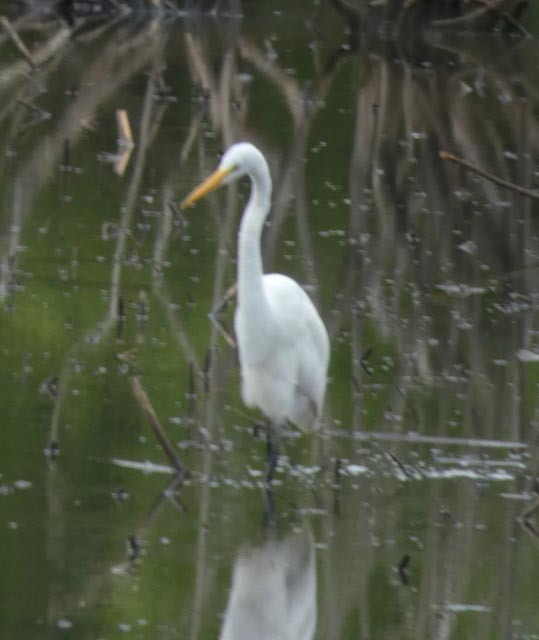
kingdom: Animalia
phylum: Chordata
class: Aves
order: Pelecaniformes
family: Ardeidae
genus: Ardea
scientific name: Ardea alba
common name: Great egret
